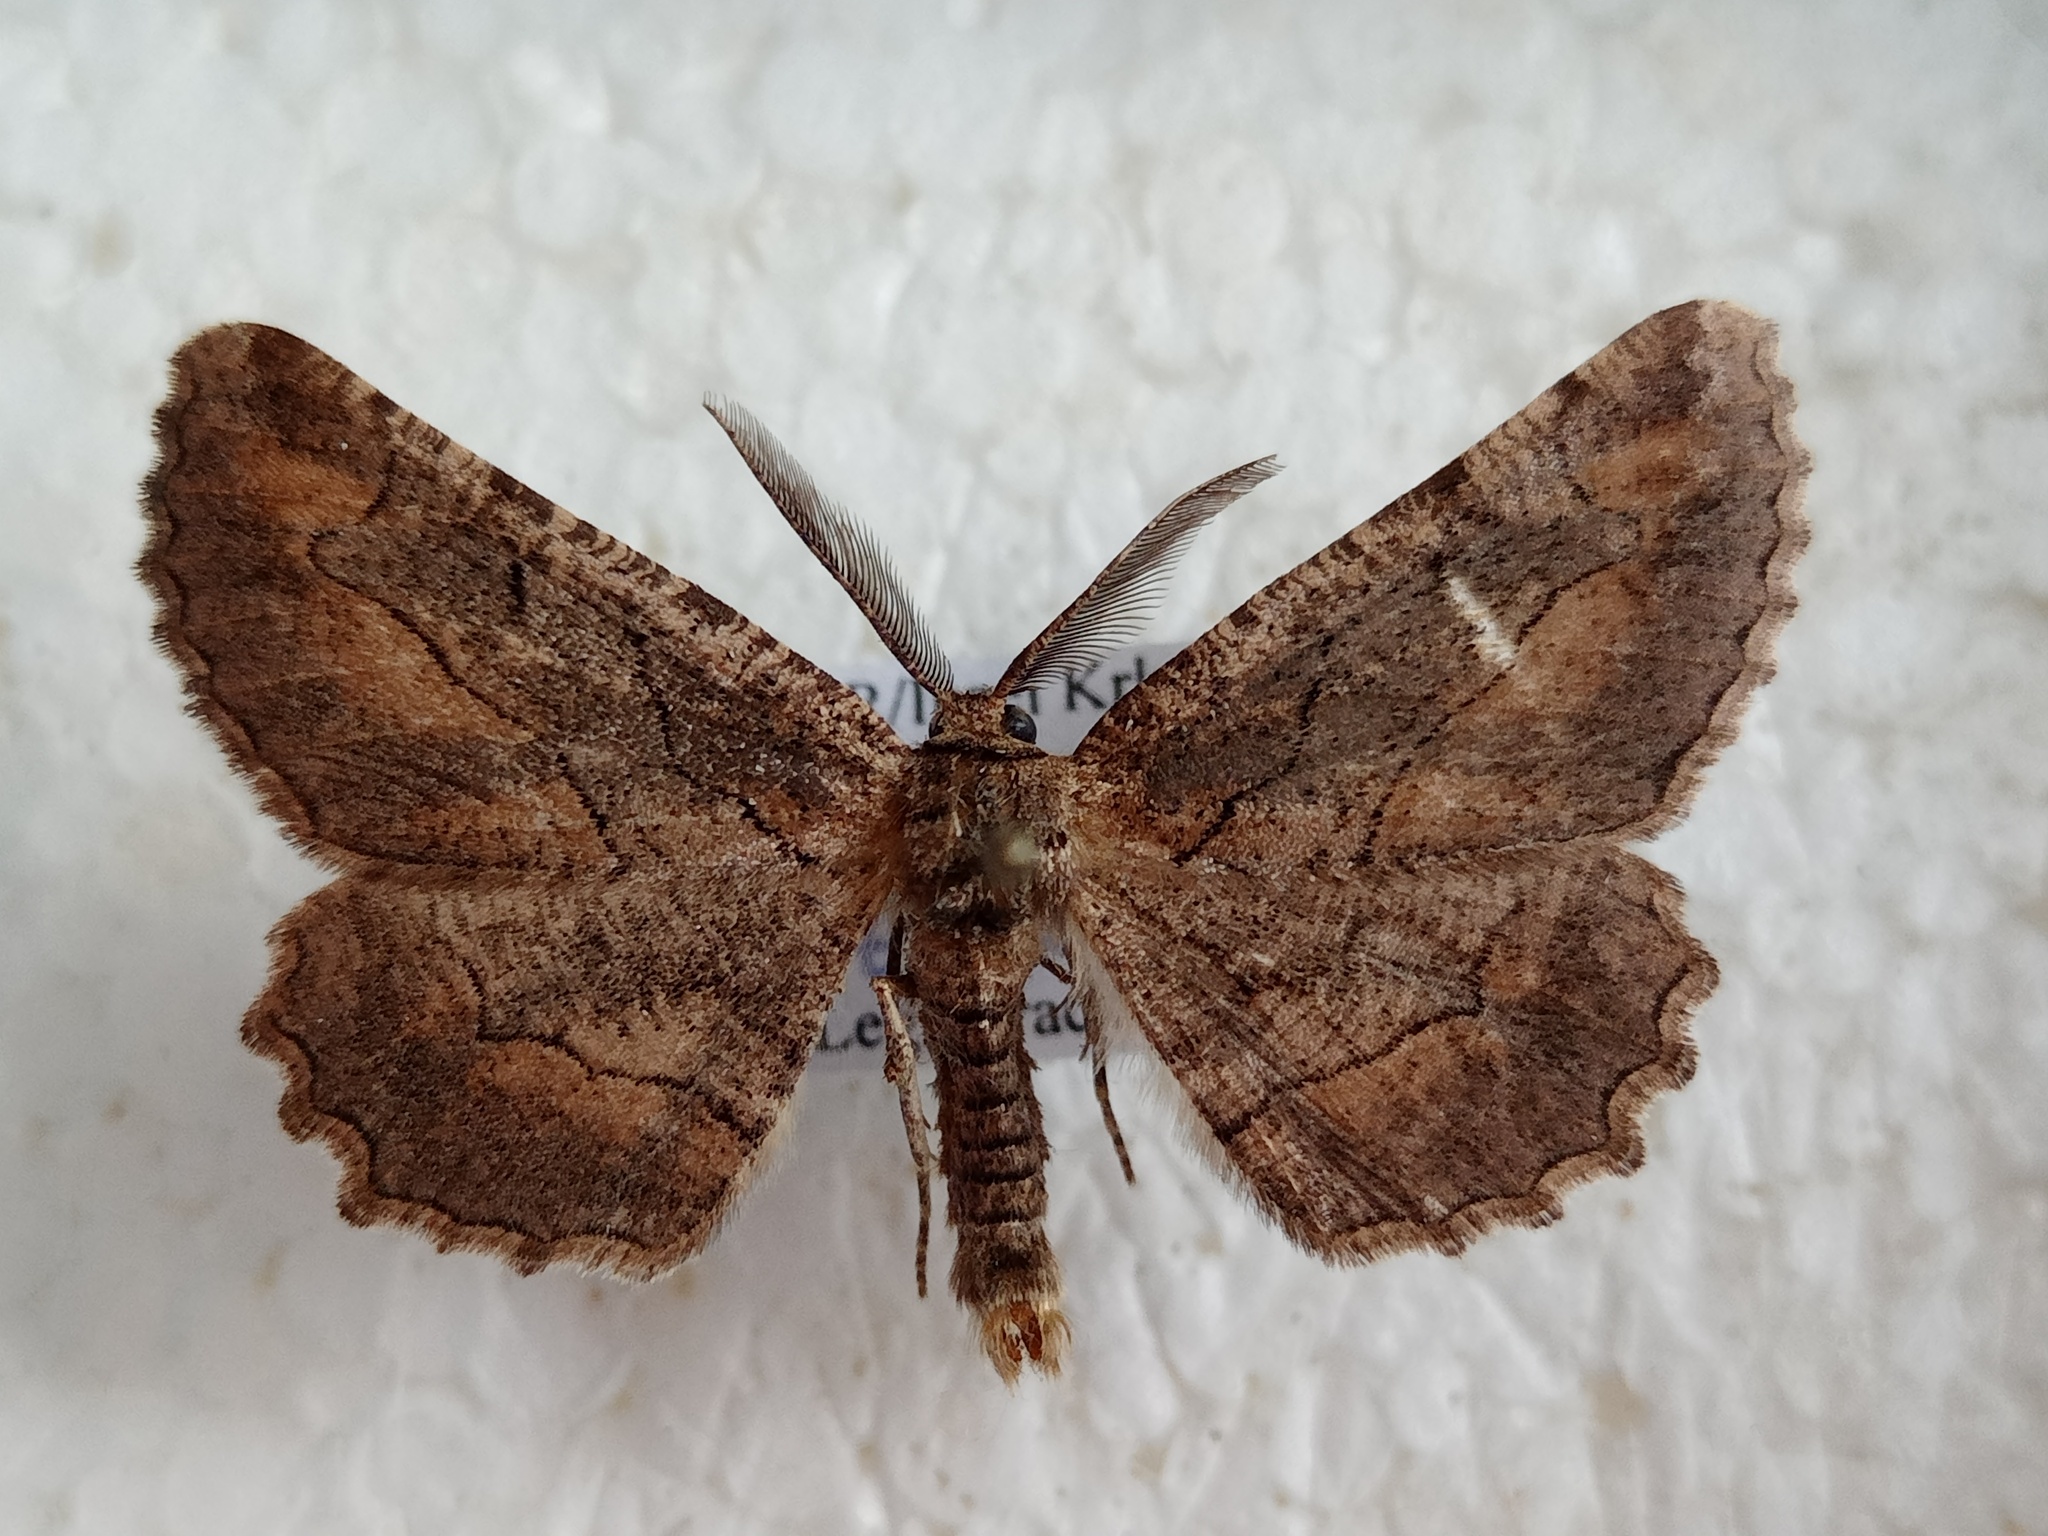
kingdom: Animalia
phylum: Arthropoda
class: Insecta
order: Lepidoptera
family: Geometridae
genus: Nychiodes
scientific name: Nychiodes dalmatina
